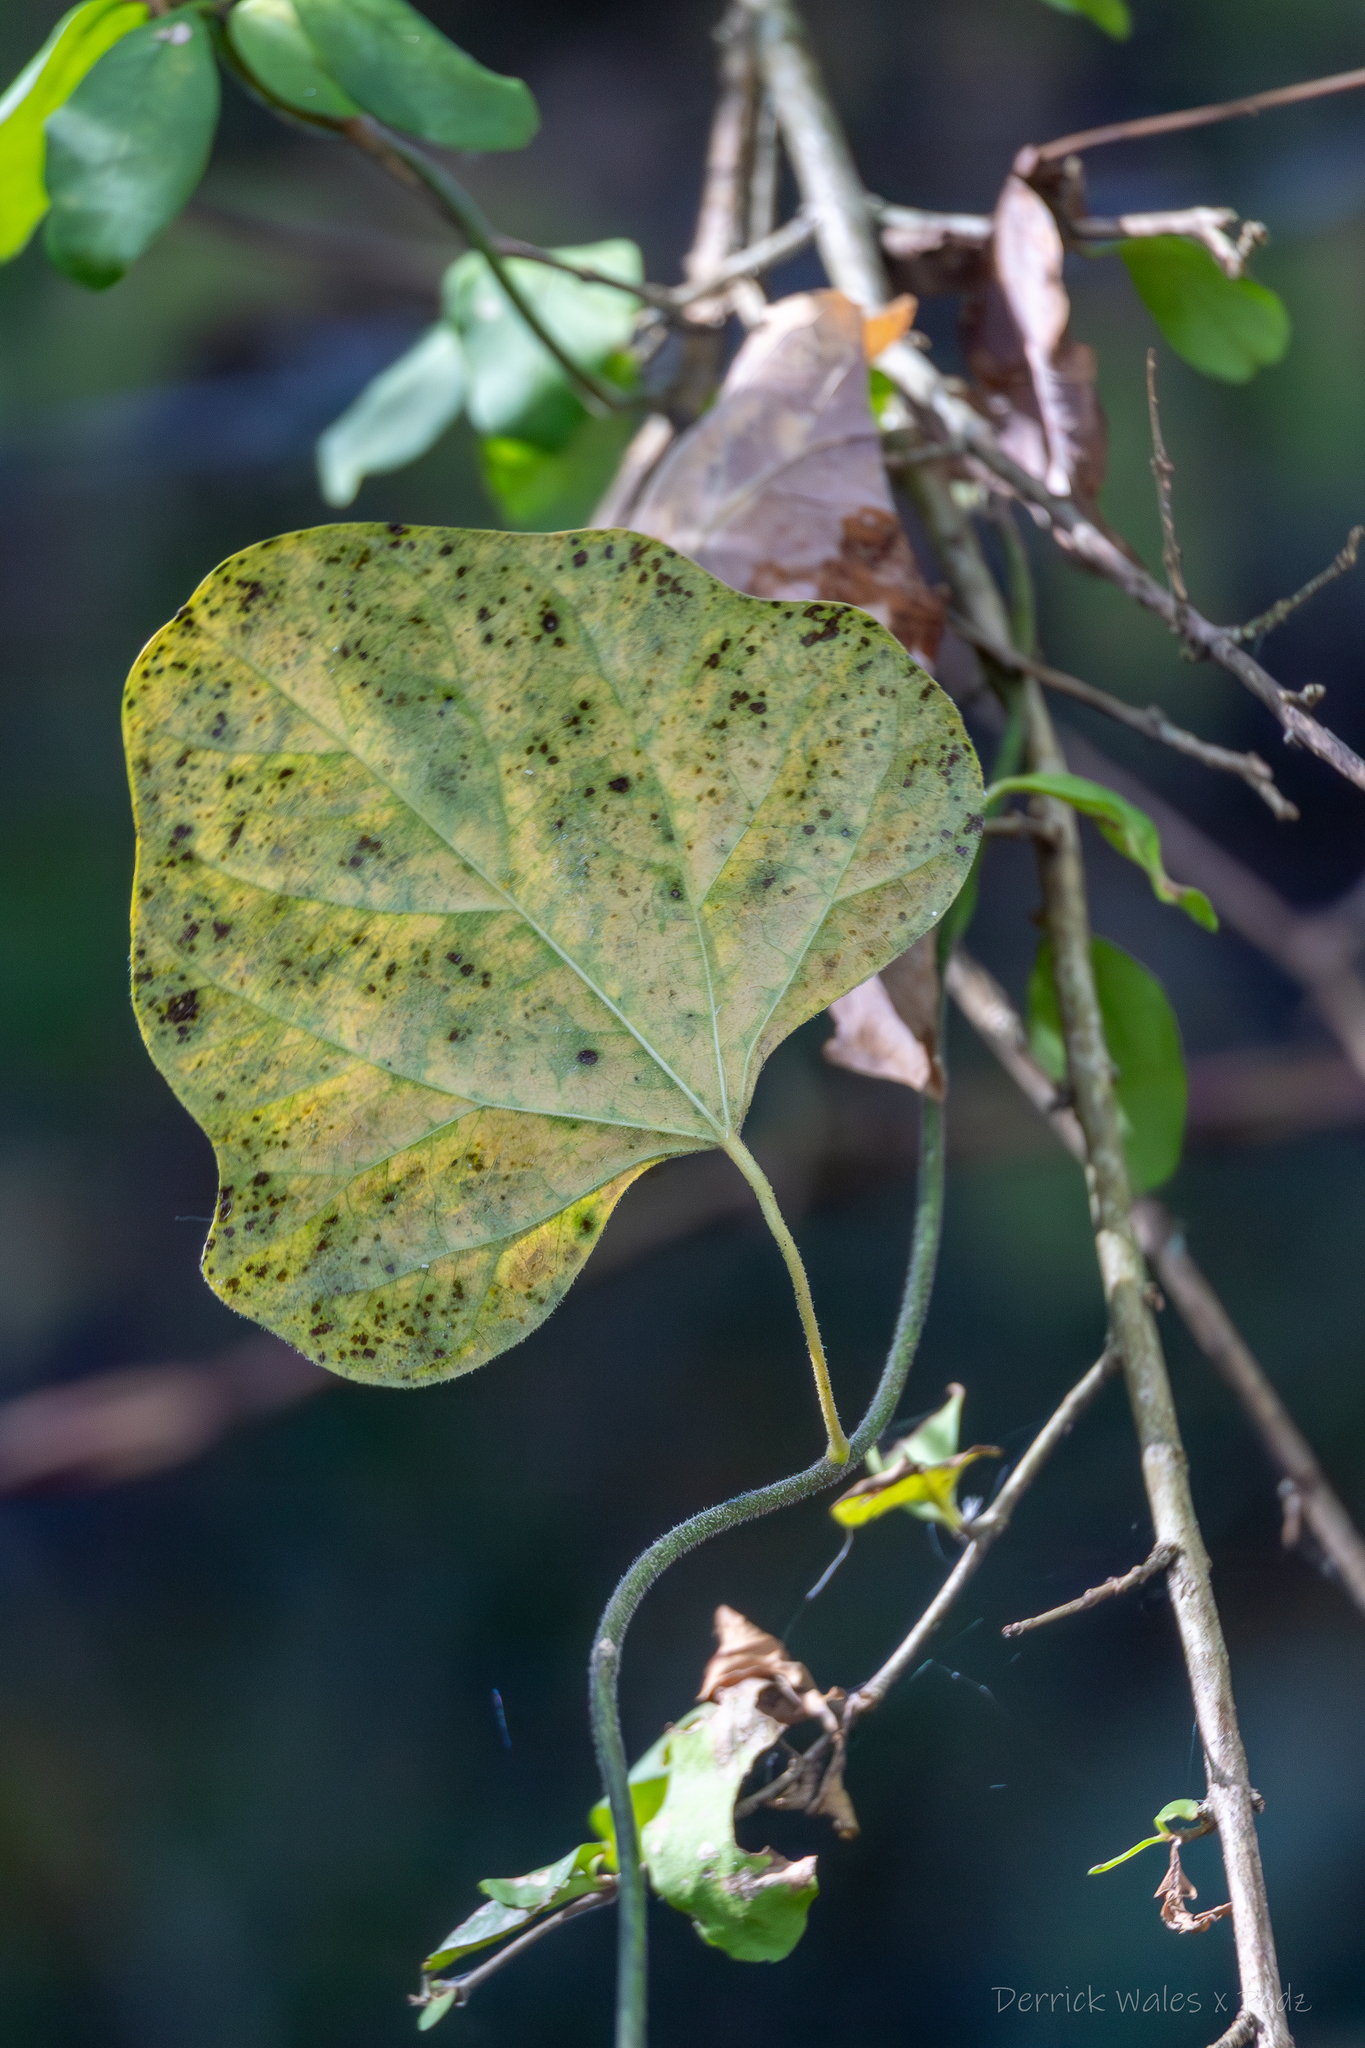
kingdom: Plantae
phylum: Tracheophyta
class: Magnoliopsida
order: Ranunculales
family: Menispermaceae
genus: Cocculus
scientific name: Cocculus carolinus
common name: Carolina moonseed
